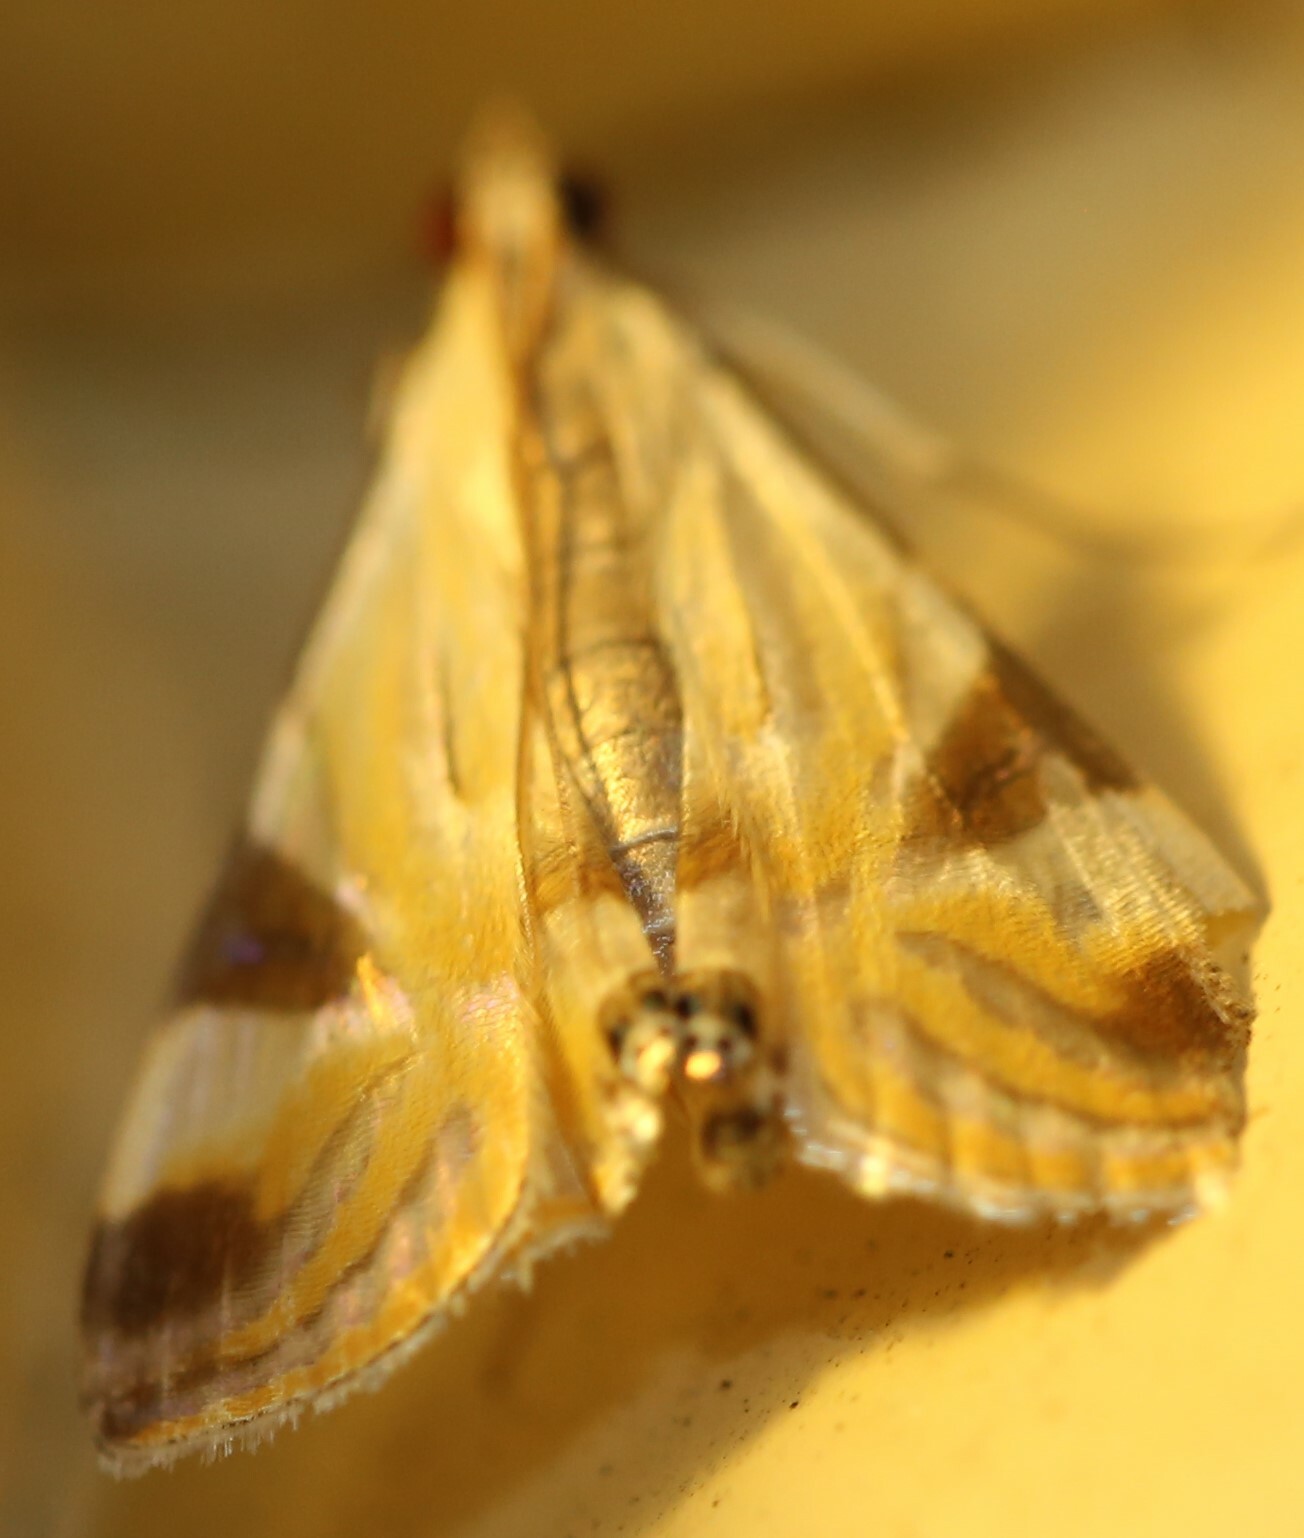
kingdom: Animalia
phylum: Arthropoda
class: Insecta
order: Lepidoptera
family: Crambidae
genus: Talanga
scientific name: Talanga tolumnialis
